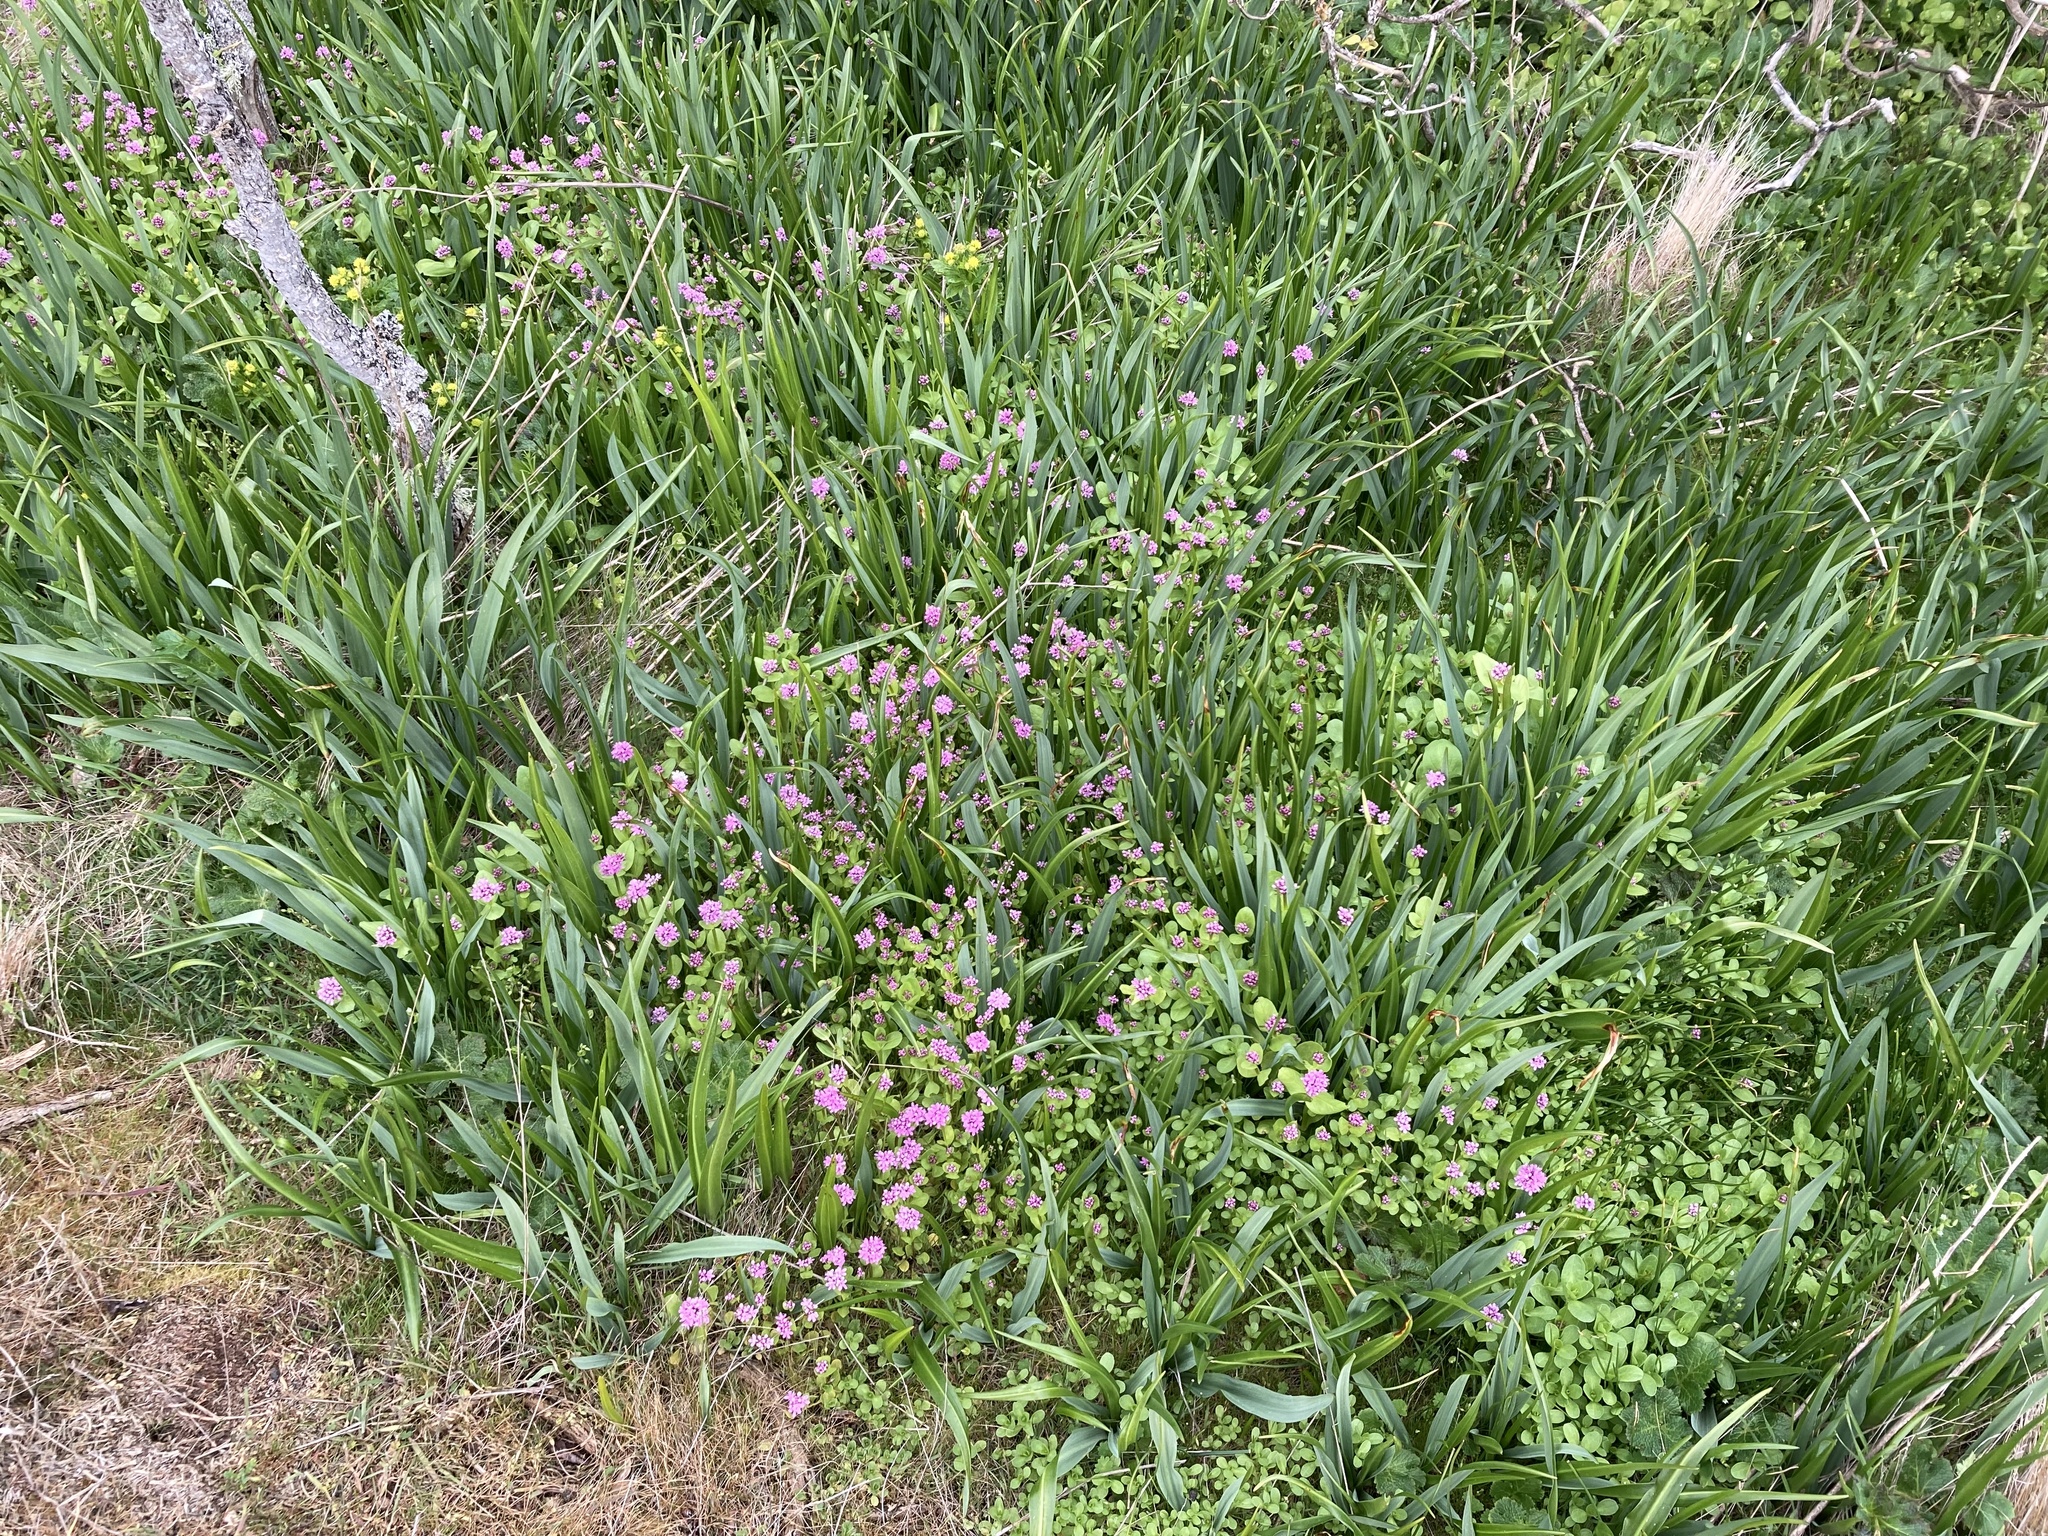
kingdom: Plantae
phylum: Tracheophyta
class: Magnoliopsida
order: Dipsacales
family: Caprifoliaceae
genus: Plectritis
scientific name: Plectritis congesta
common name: Pink plectritis
